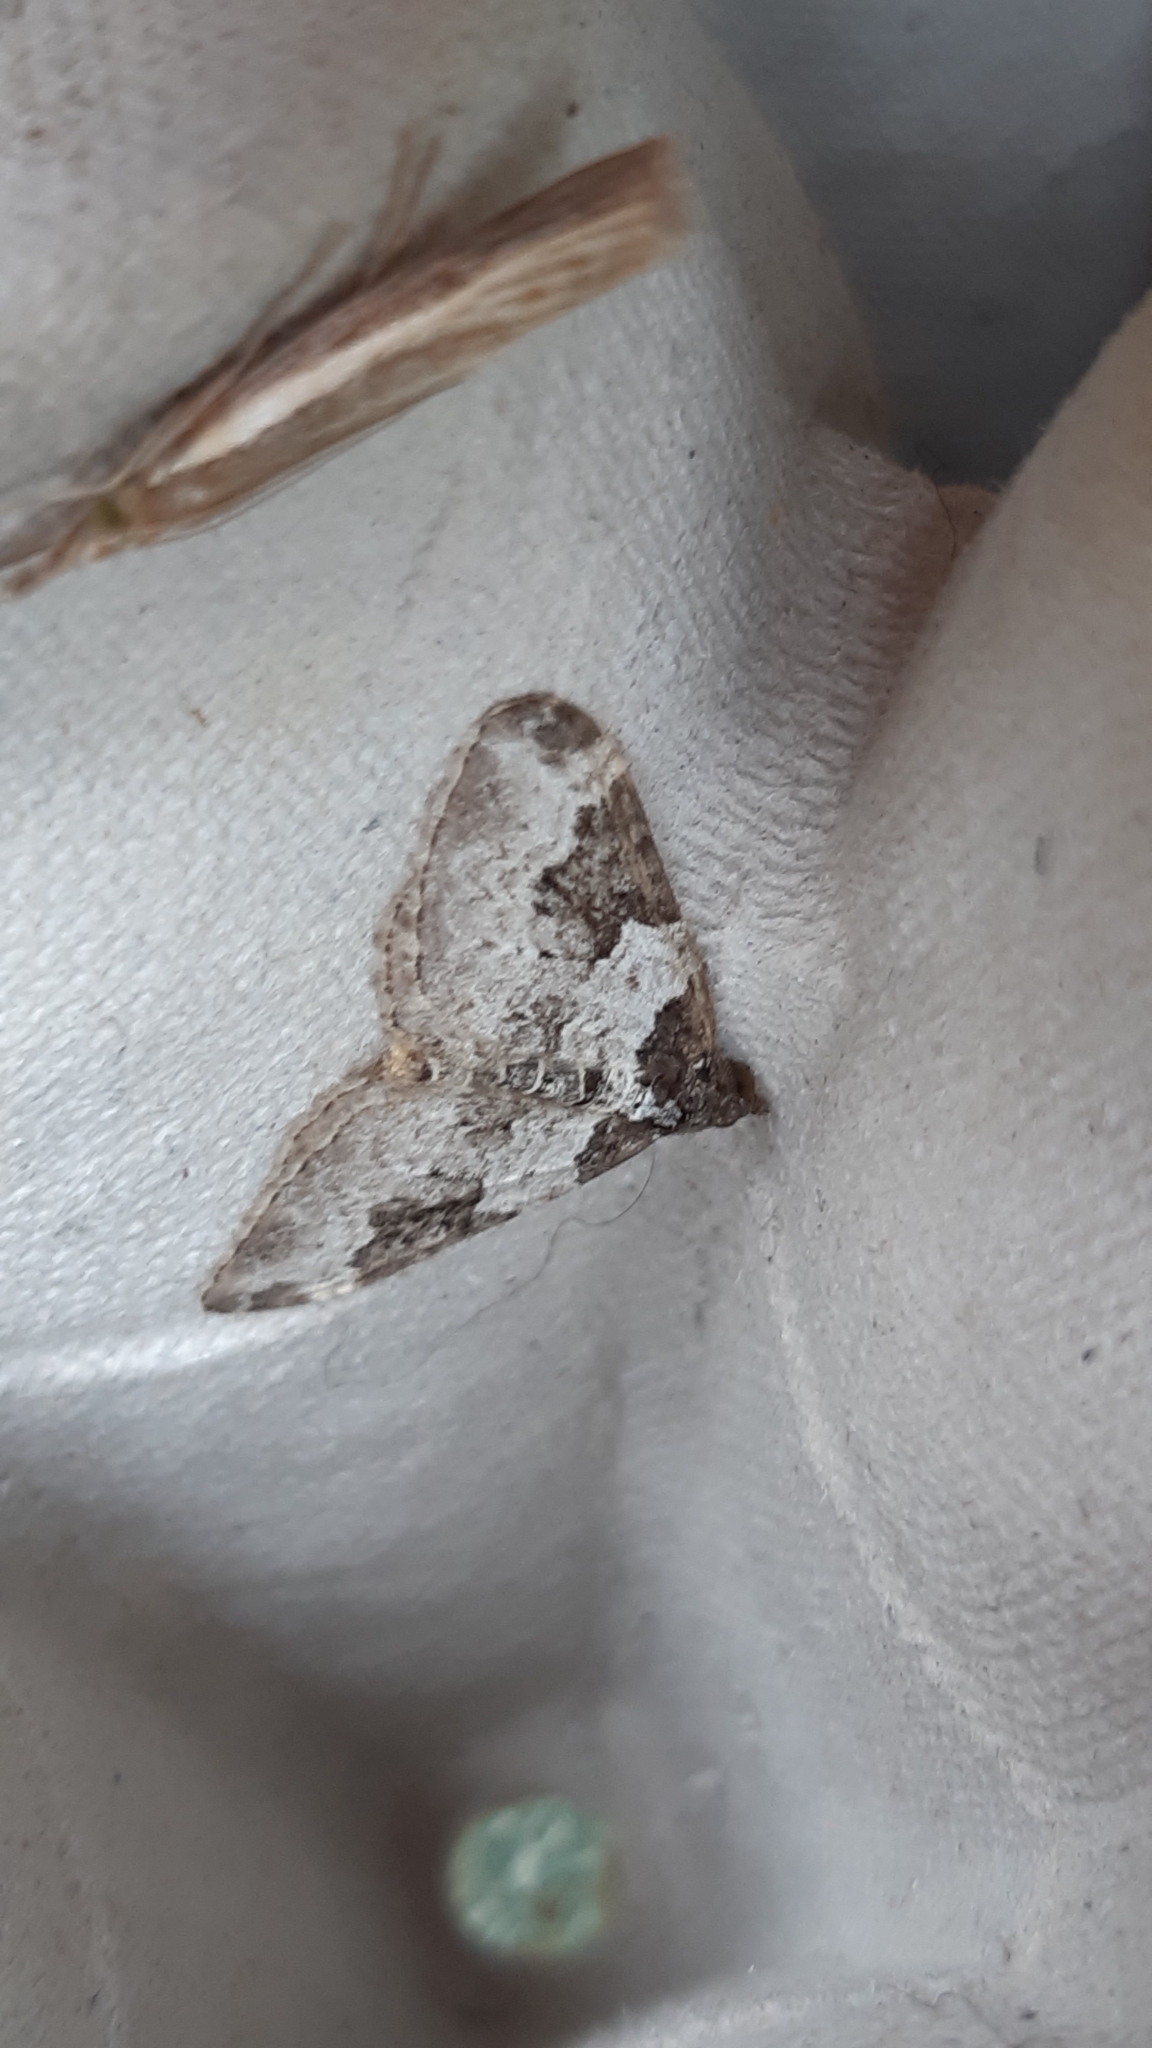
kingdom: Animalia
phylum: Arthropoda
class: Insecta
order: Lepidoptera
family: Geometridae
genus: Xanthorhoe
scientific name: Xanthorhoe fluctuata
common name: Garden carpet
